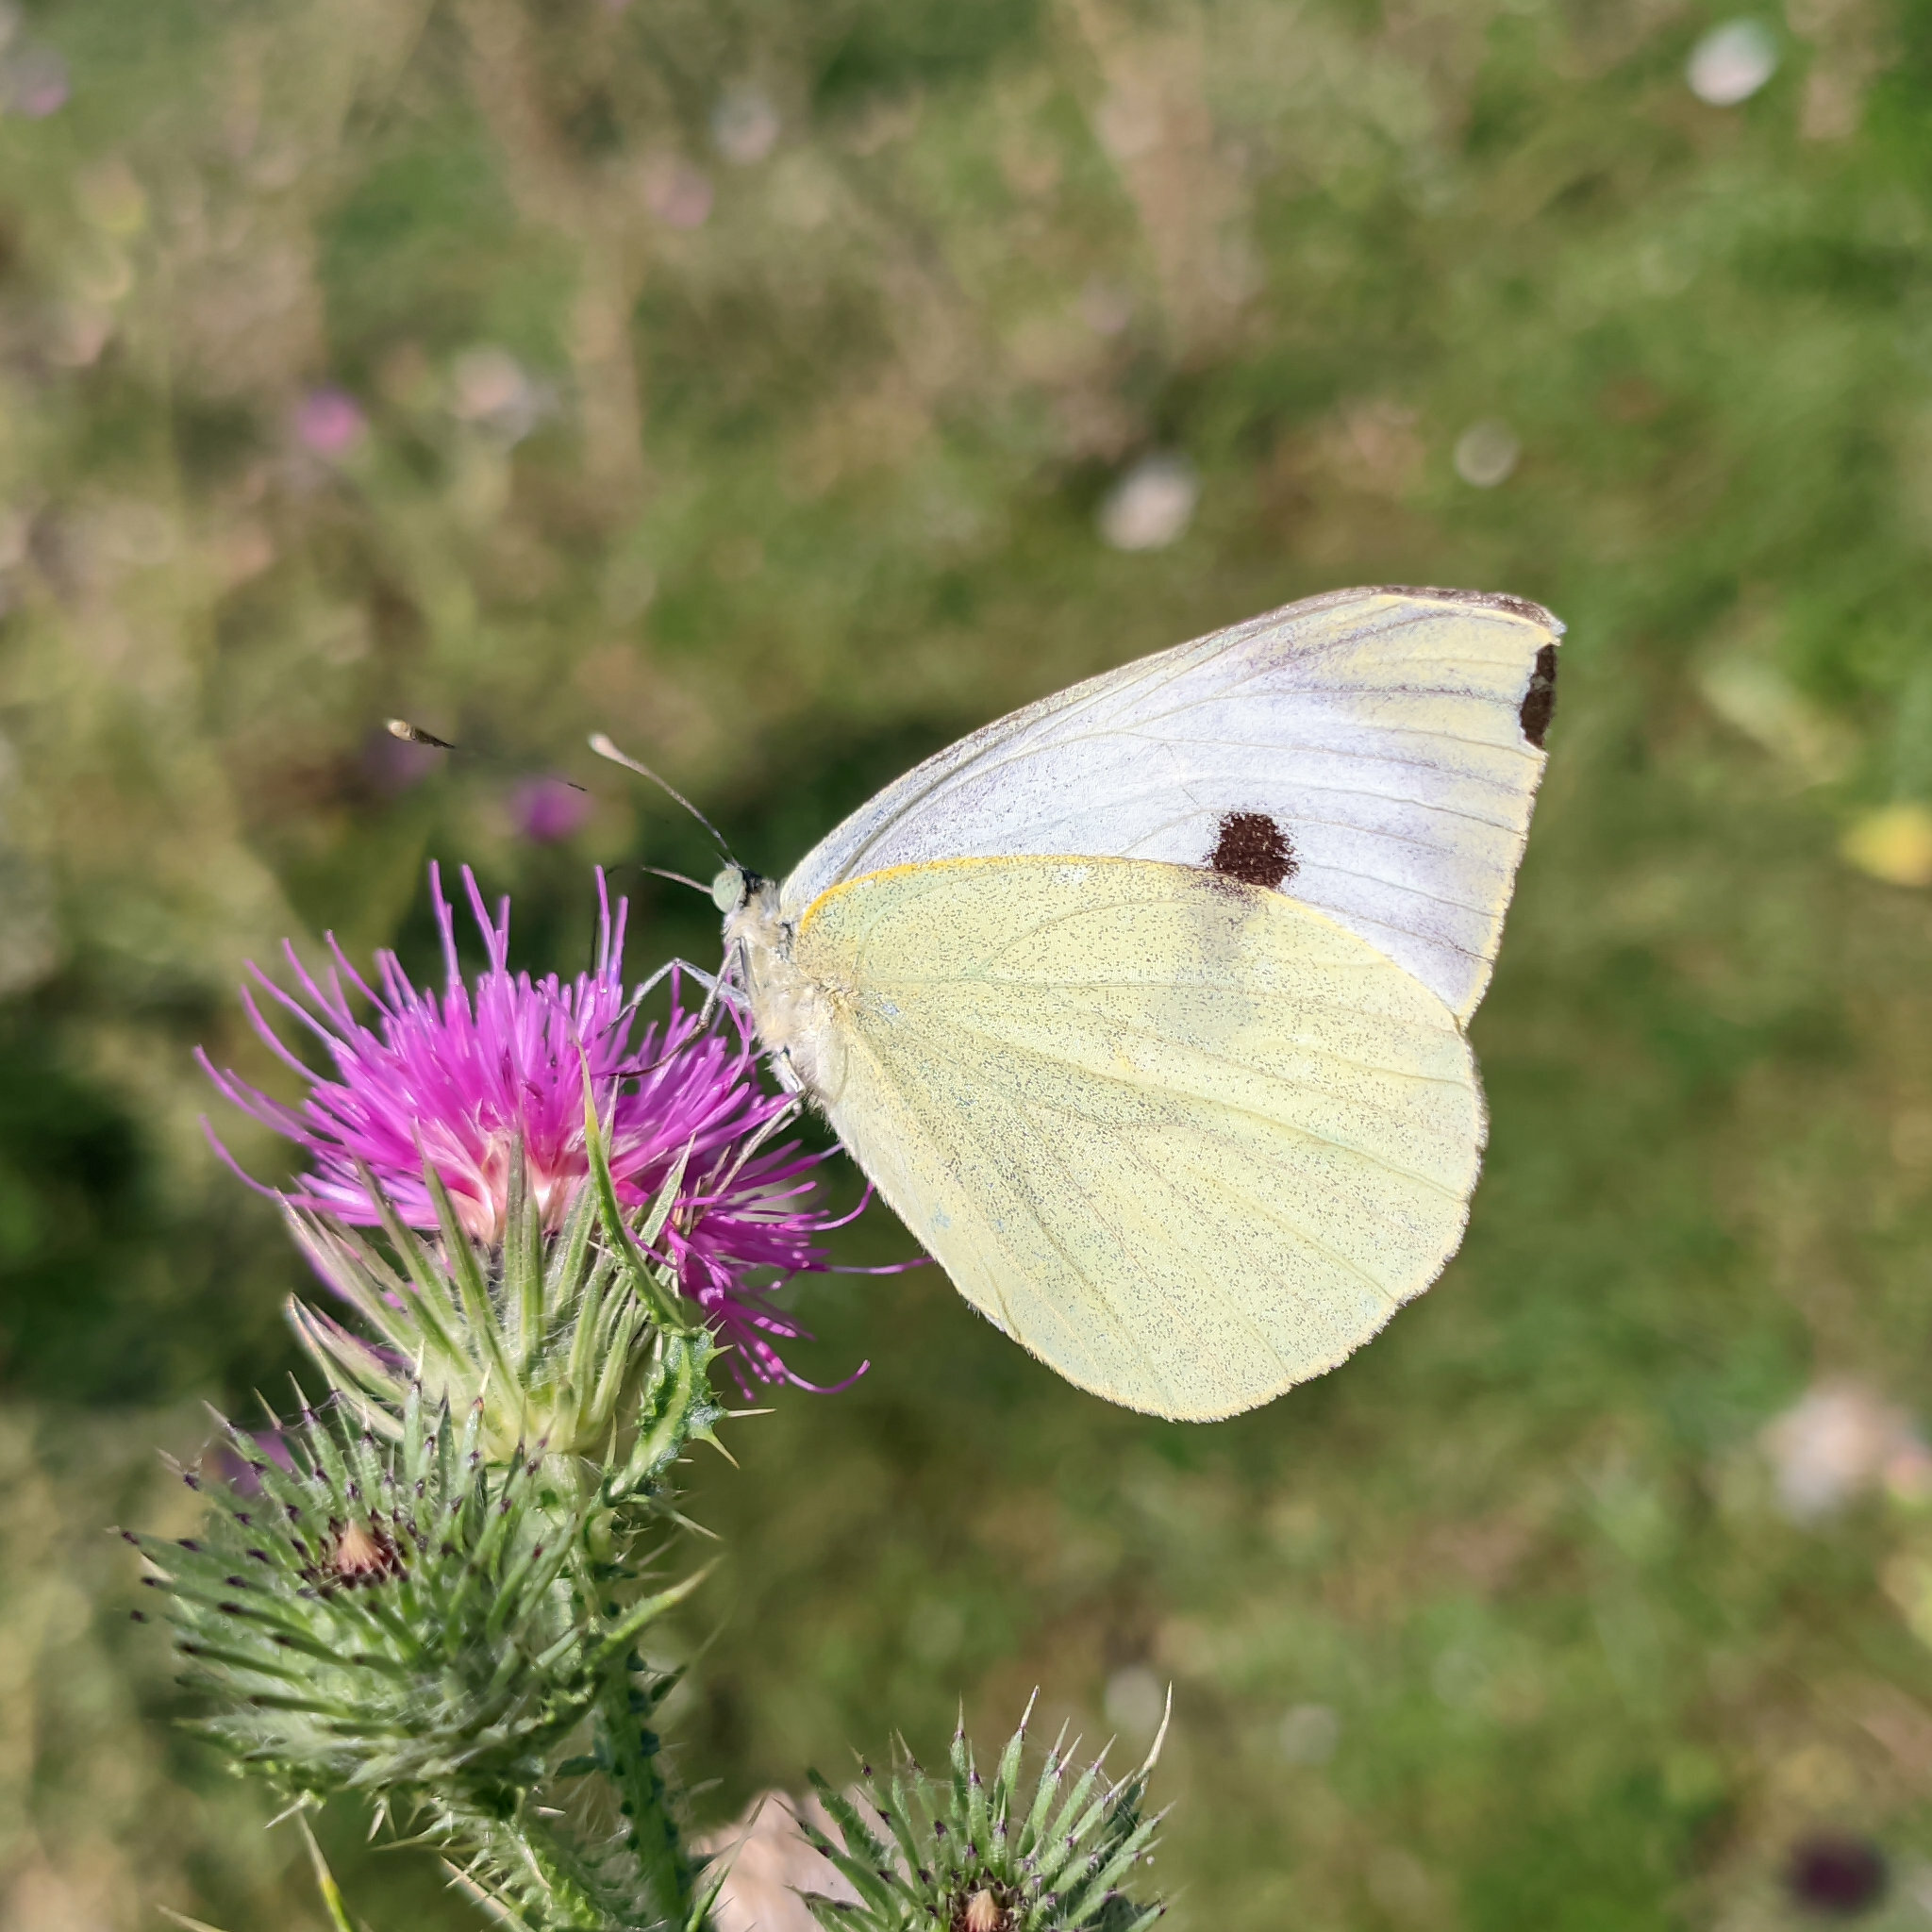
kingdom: Animalia
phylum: Arthropoda
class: Insecta
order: Lepidoptera
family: Pieridae
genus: Pieris
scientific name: Pieris brassicae
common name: Large white
